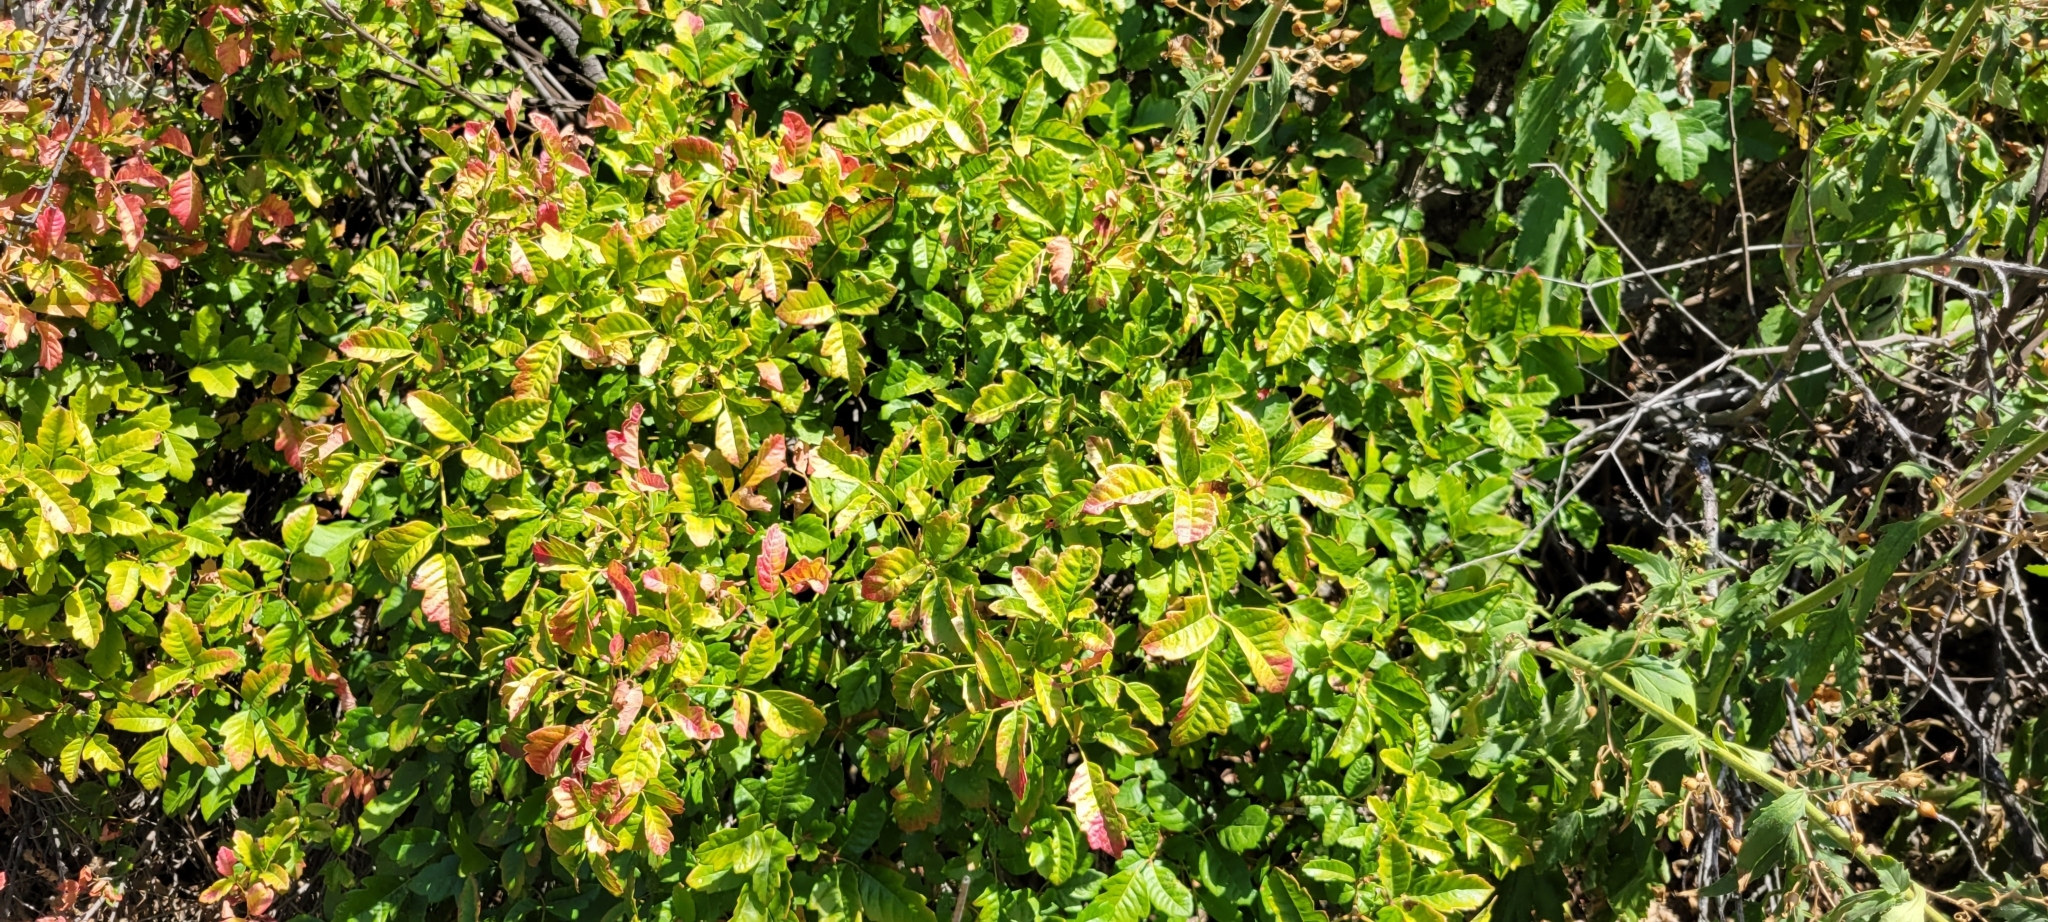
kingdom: Plantae
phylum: Tracheophyta
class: Magnoliopsida
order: Sapindales
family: Anacardiaceae
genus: Toxicodendron
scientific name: Toxicodendron diversilobum
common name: Pacific poison-oak
